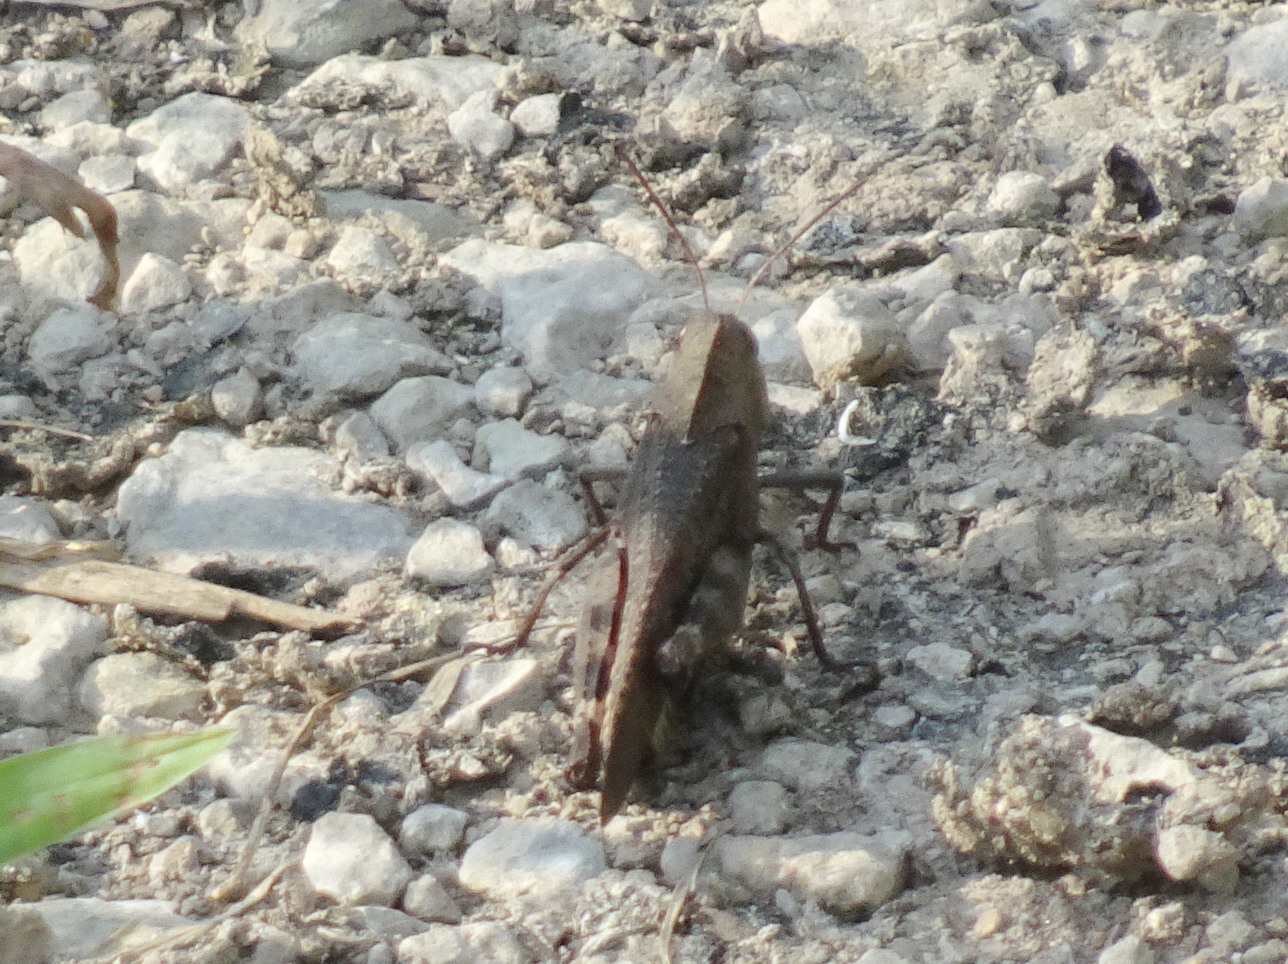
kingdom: Animalia
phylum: Arthropoda
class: Insecta
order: Orthoptera
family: Acrididae
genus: Arphia
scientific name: Arphia xanthoptera
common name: Autumn yellow-winged grasshopper
